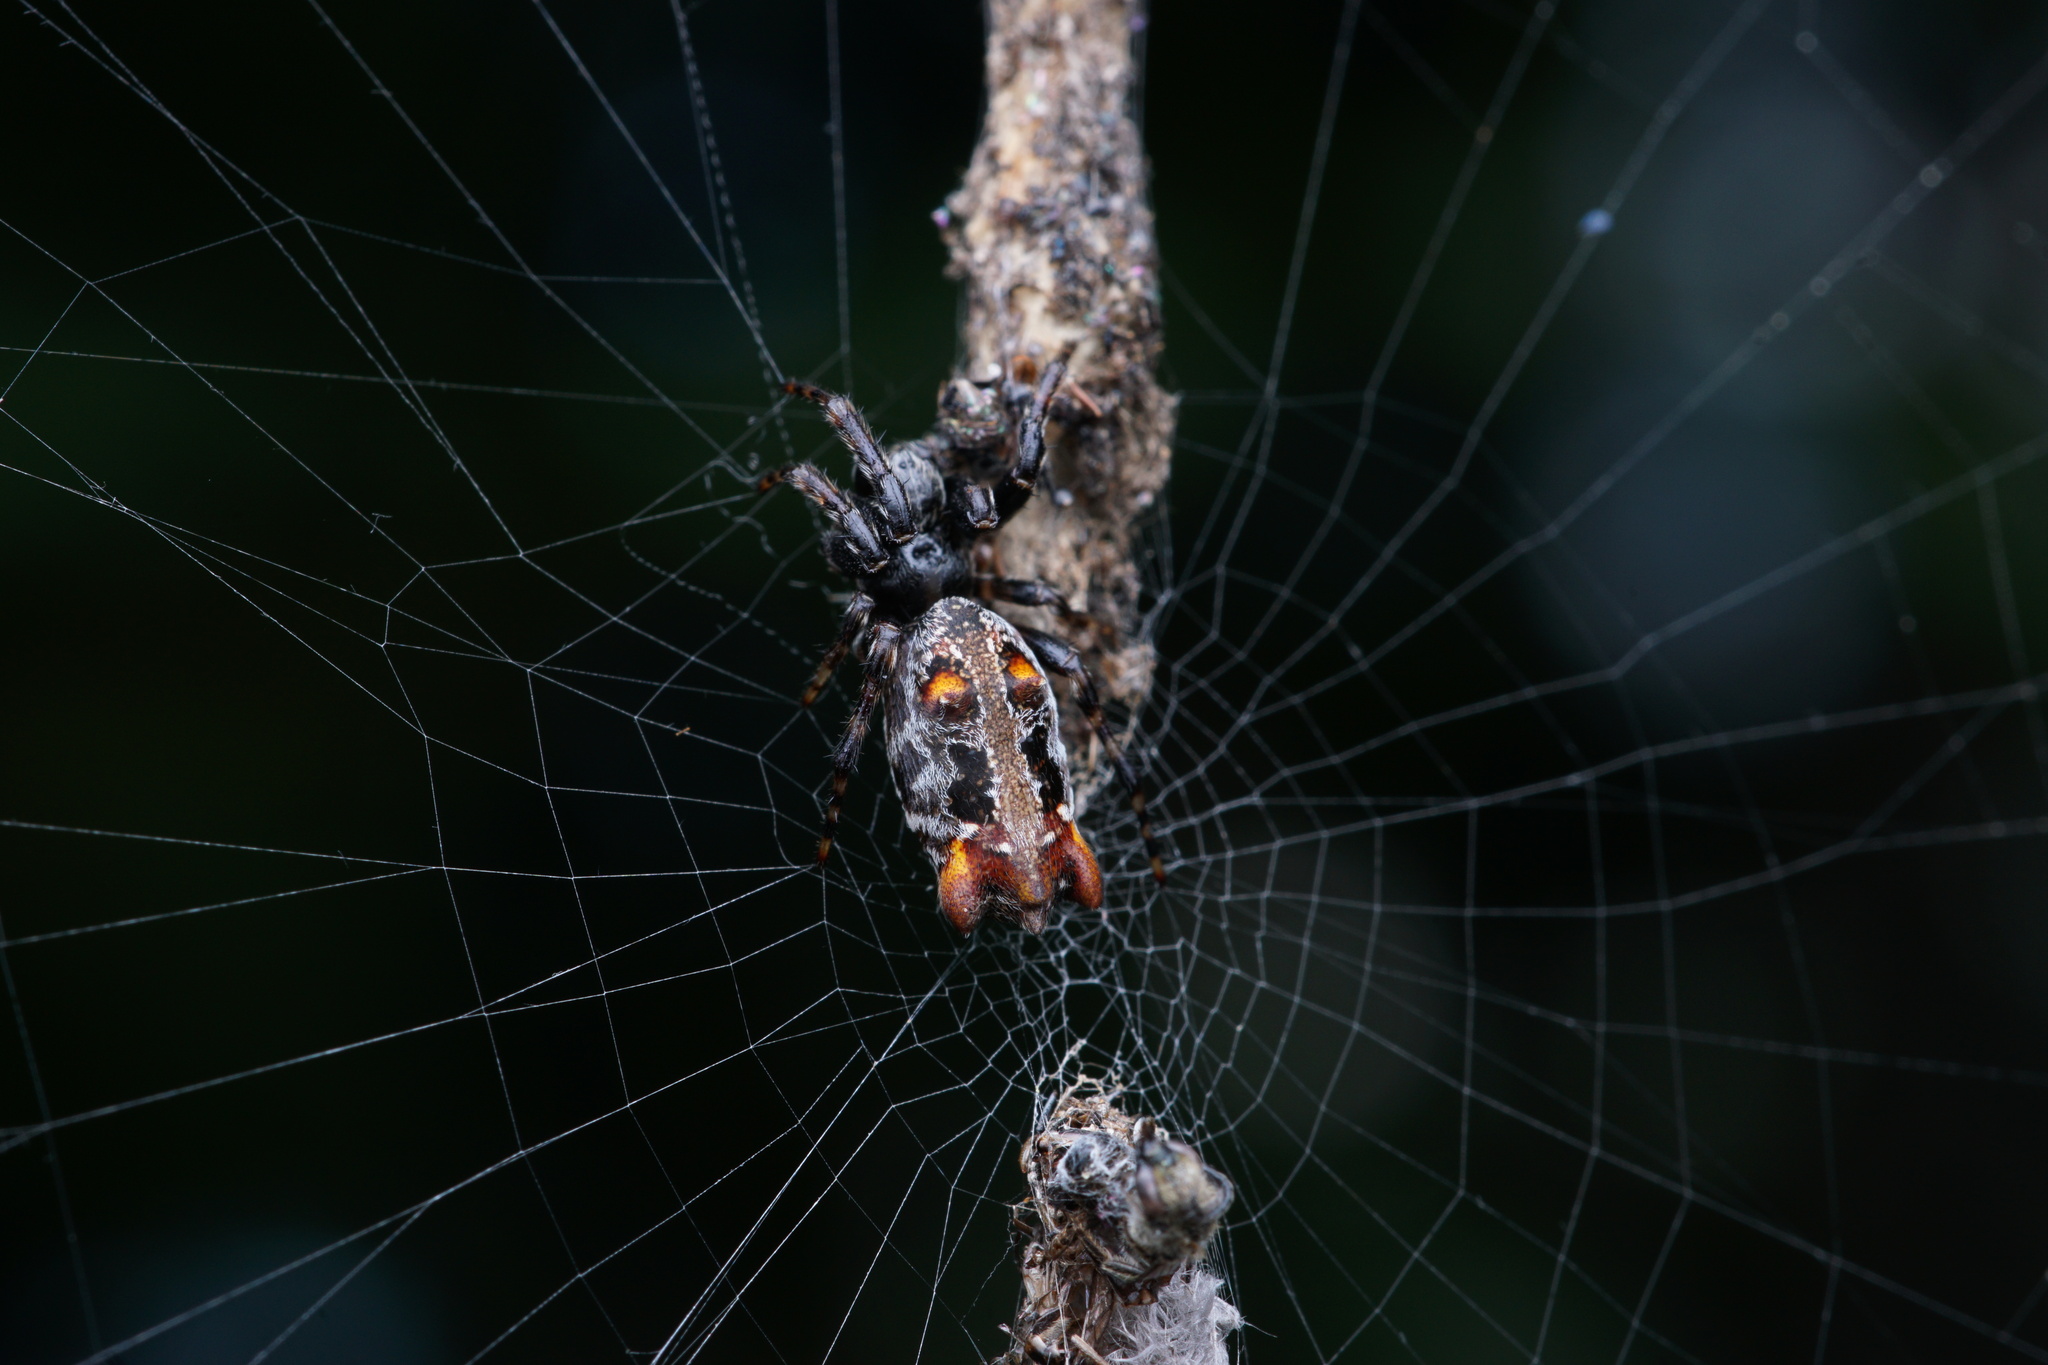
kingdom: Animalia
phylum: Arthropoda
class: Arachnida
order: Araneae
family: Araneidae
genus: Cyclosa
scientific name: Cyclosa bifurcata
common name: Orb weavers
